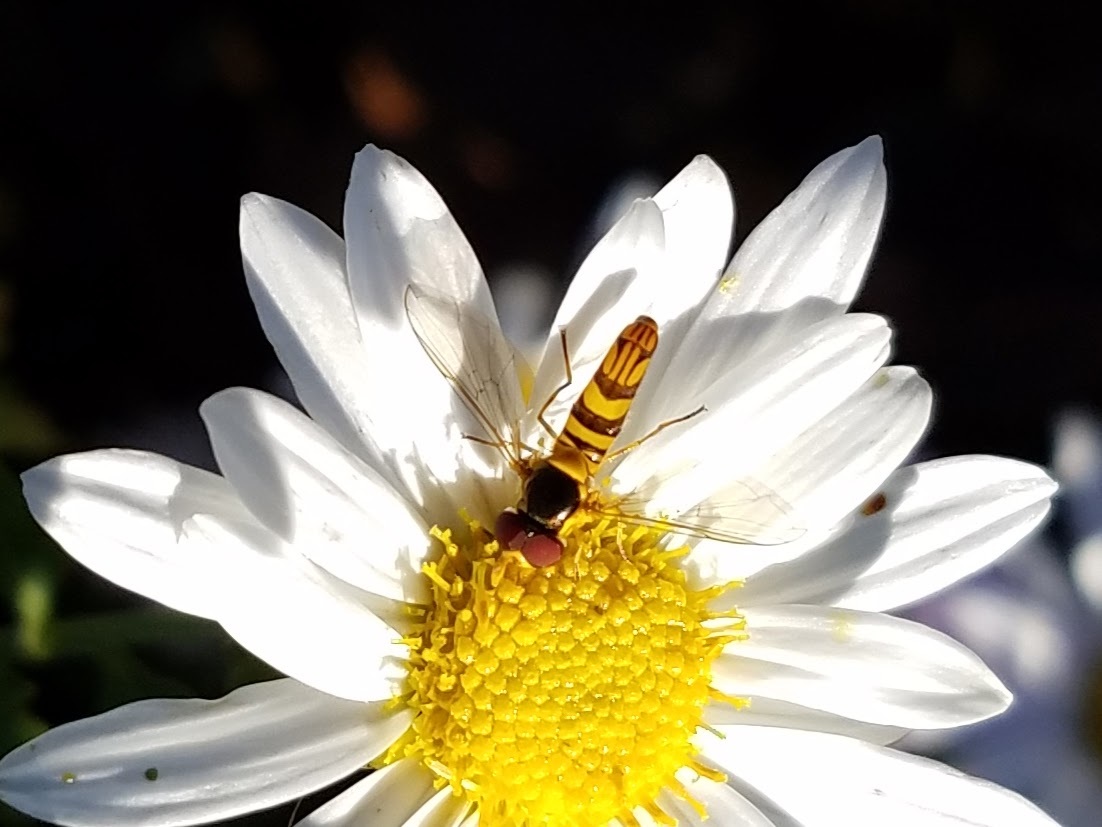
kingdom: Animalia
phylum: Arthropoda
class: Insecta
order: Diptera
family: Syrphidae
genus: Allograpta
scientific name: Allograpta obliqua
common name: Common oblique syrphid
